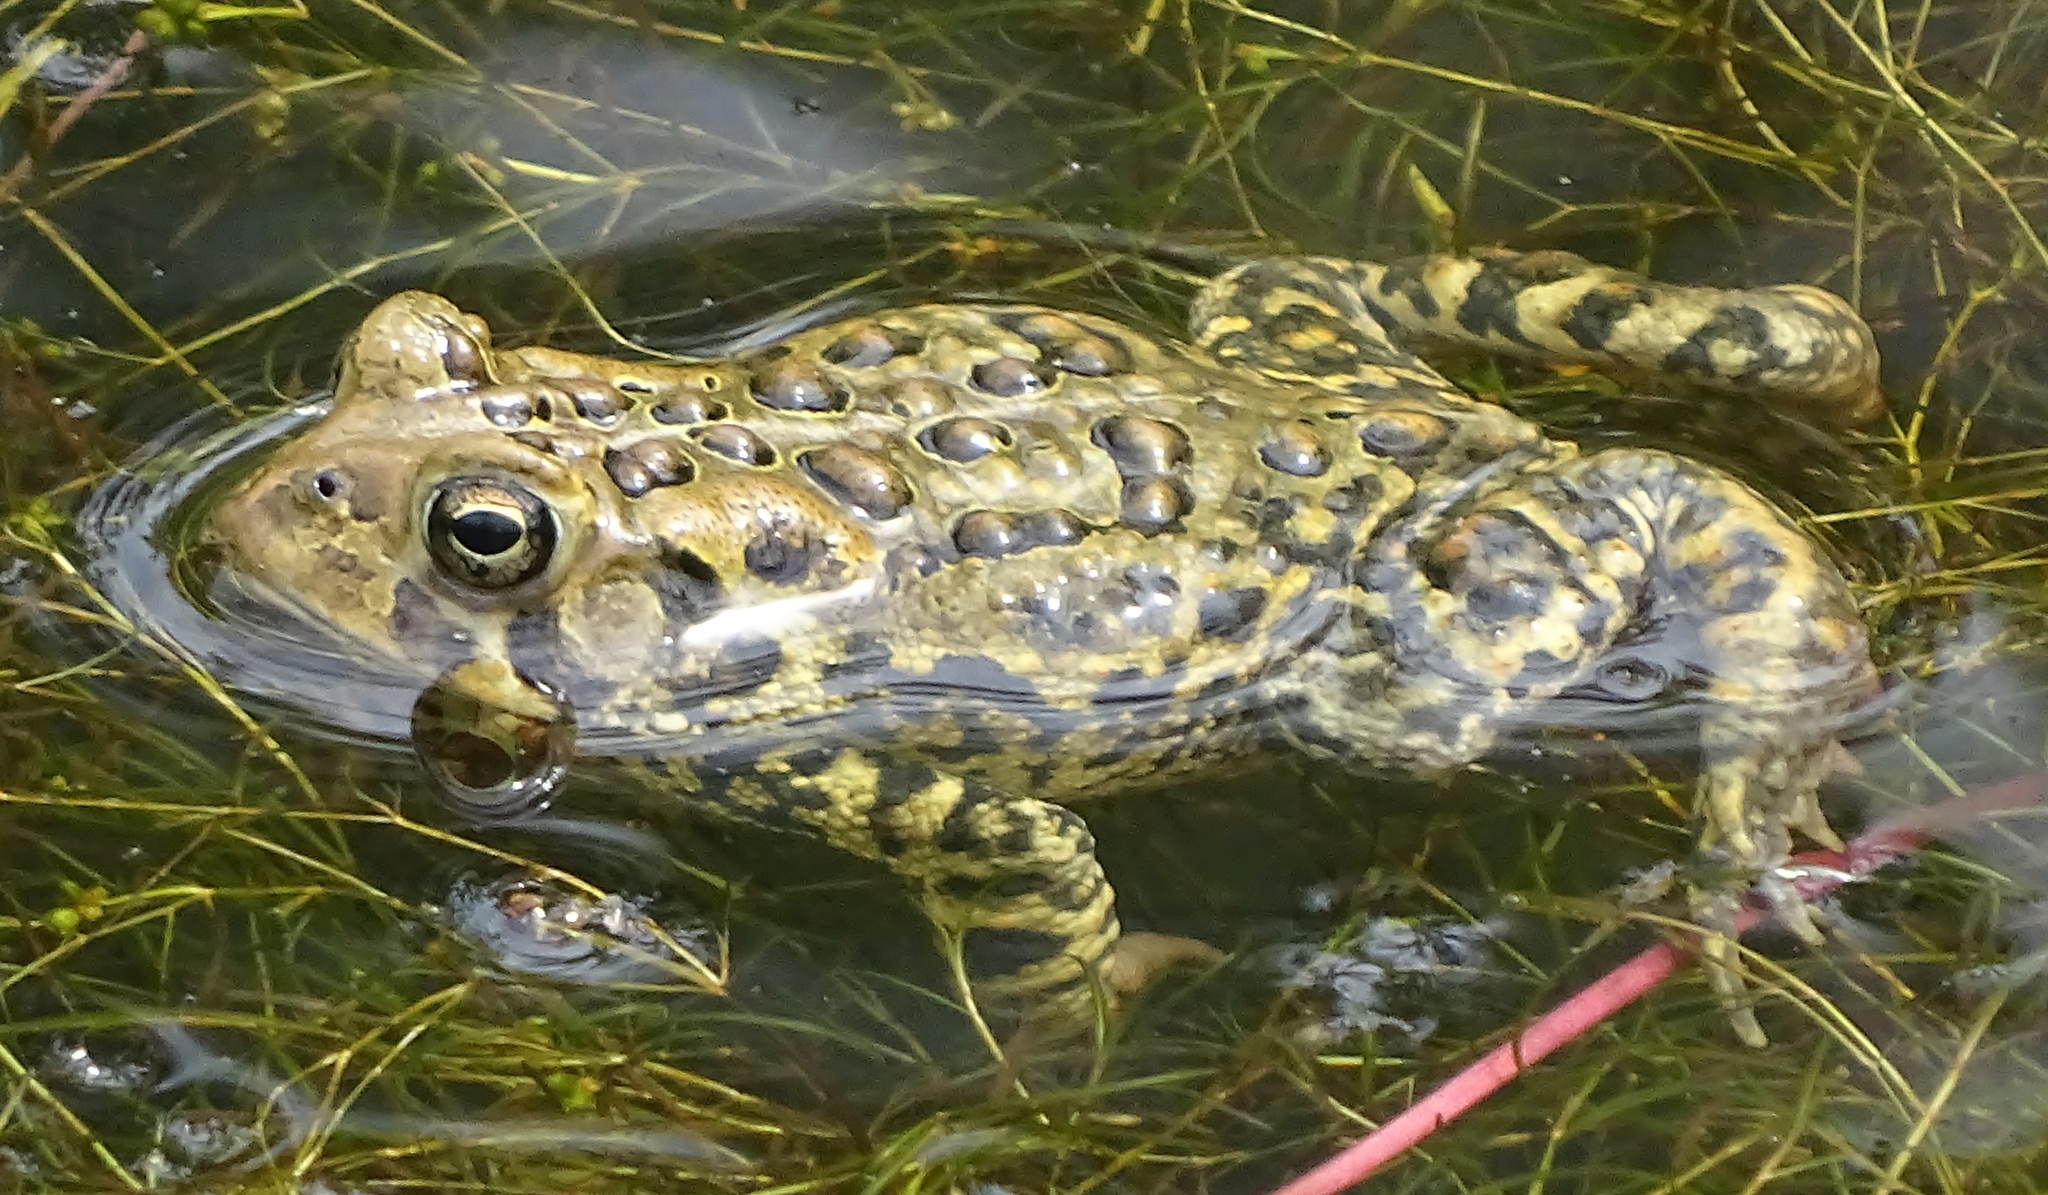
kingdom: Animalia
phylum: Chordata
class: Amphibia
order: Anura
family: Bufonidae
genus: Anaxyrus
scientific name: Anaxyrus americanus
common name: American toad
